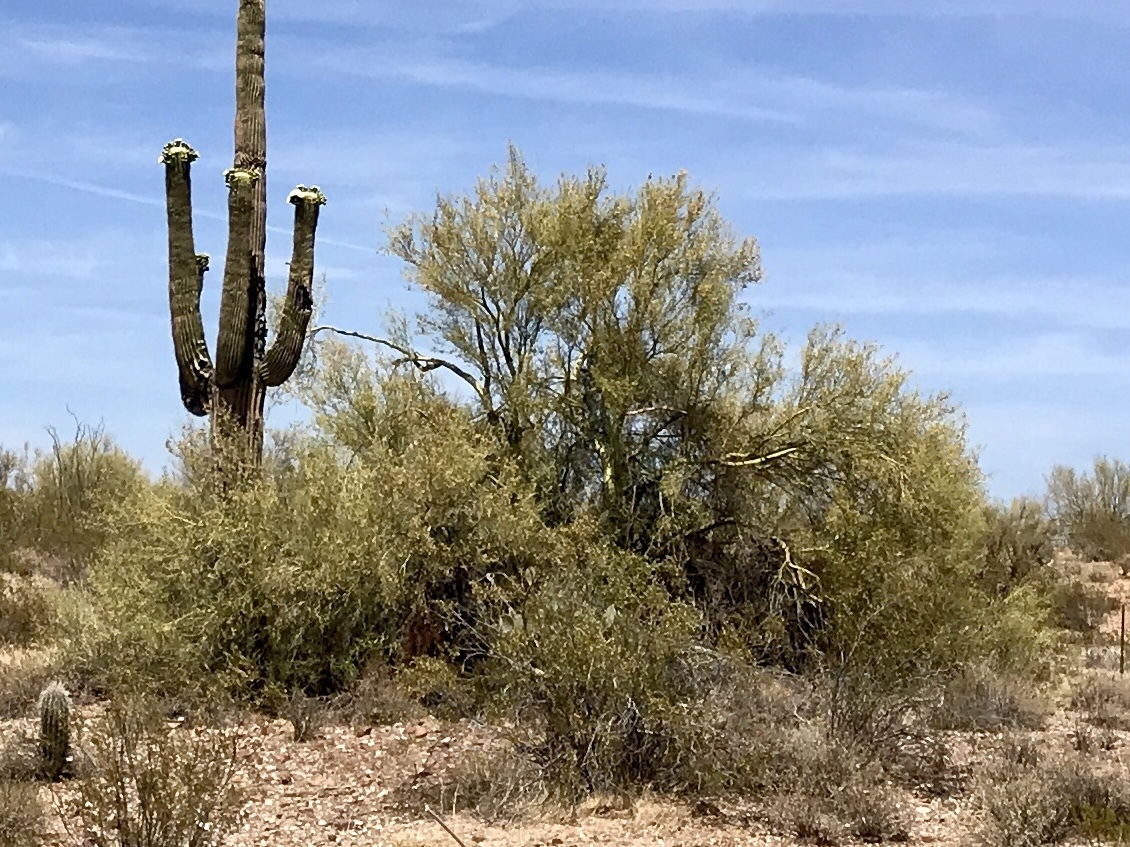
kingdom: Plantae
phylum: Tracheophyta
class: Magnoliopsida
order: Fabales
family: Fabaceae
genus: Parkinsonia
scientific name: Parkinsonia microphylla
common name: Yellow paloverde
